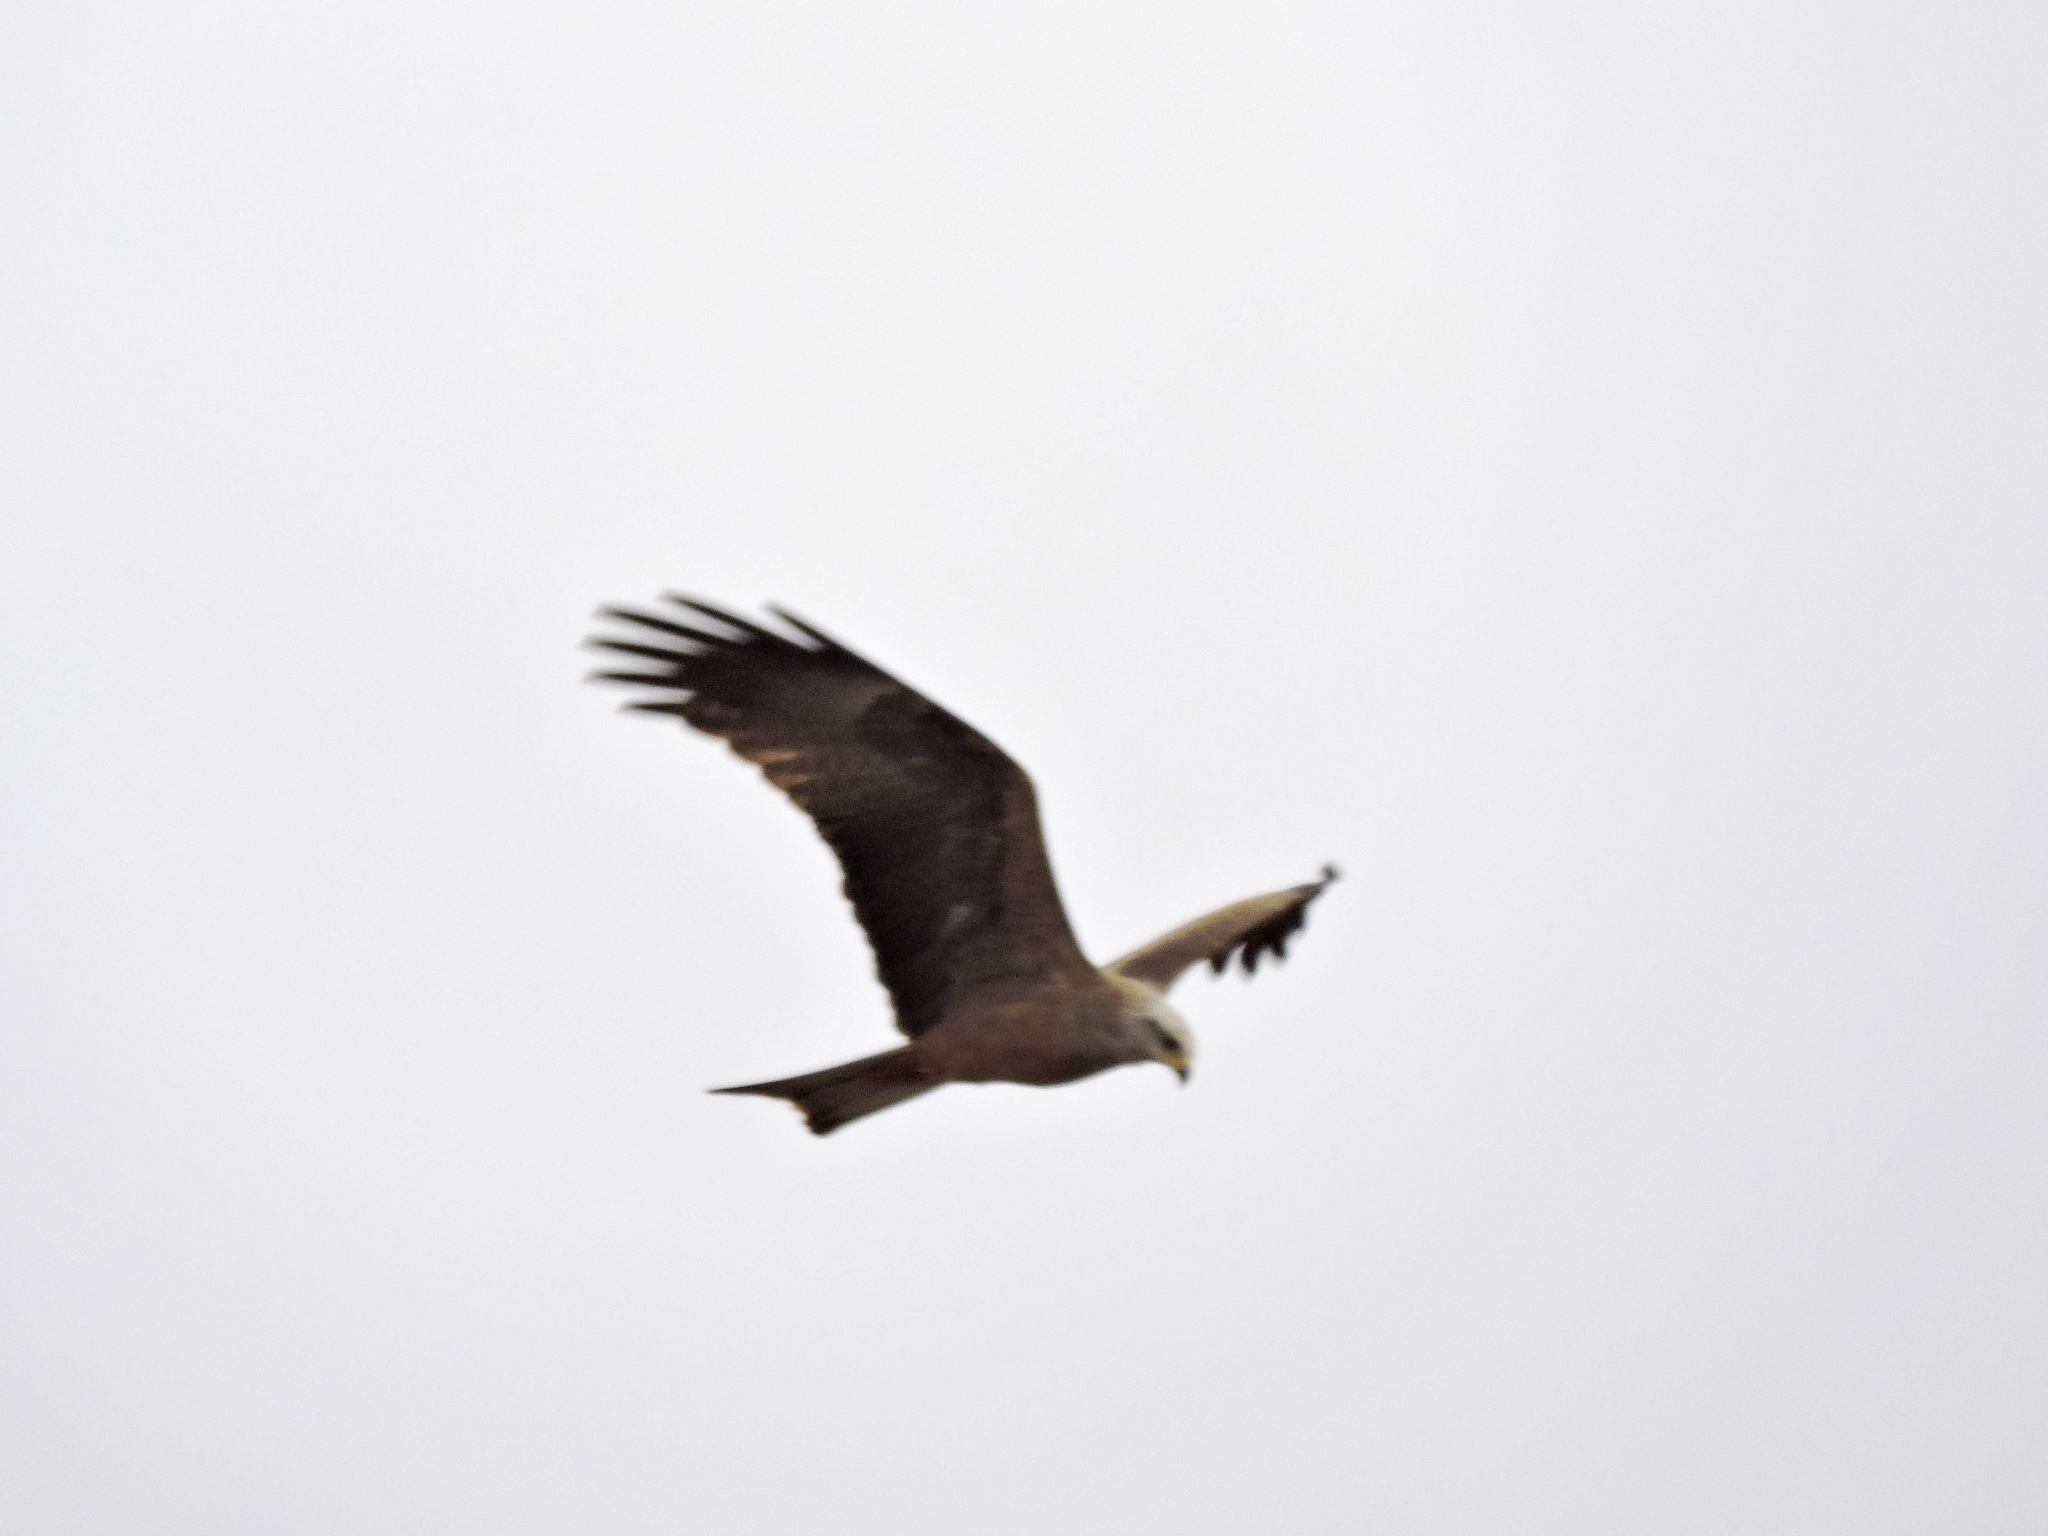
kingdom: Animalia
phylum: Chordata
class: Aves
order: Accipitriformes
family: Accipitridae
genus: Milvus
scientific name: Milvus migrans
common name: Black kite
